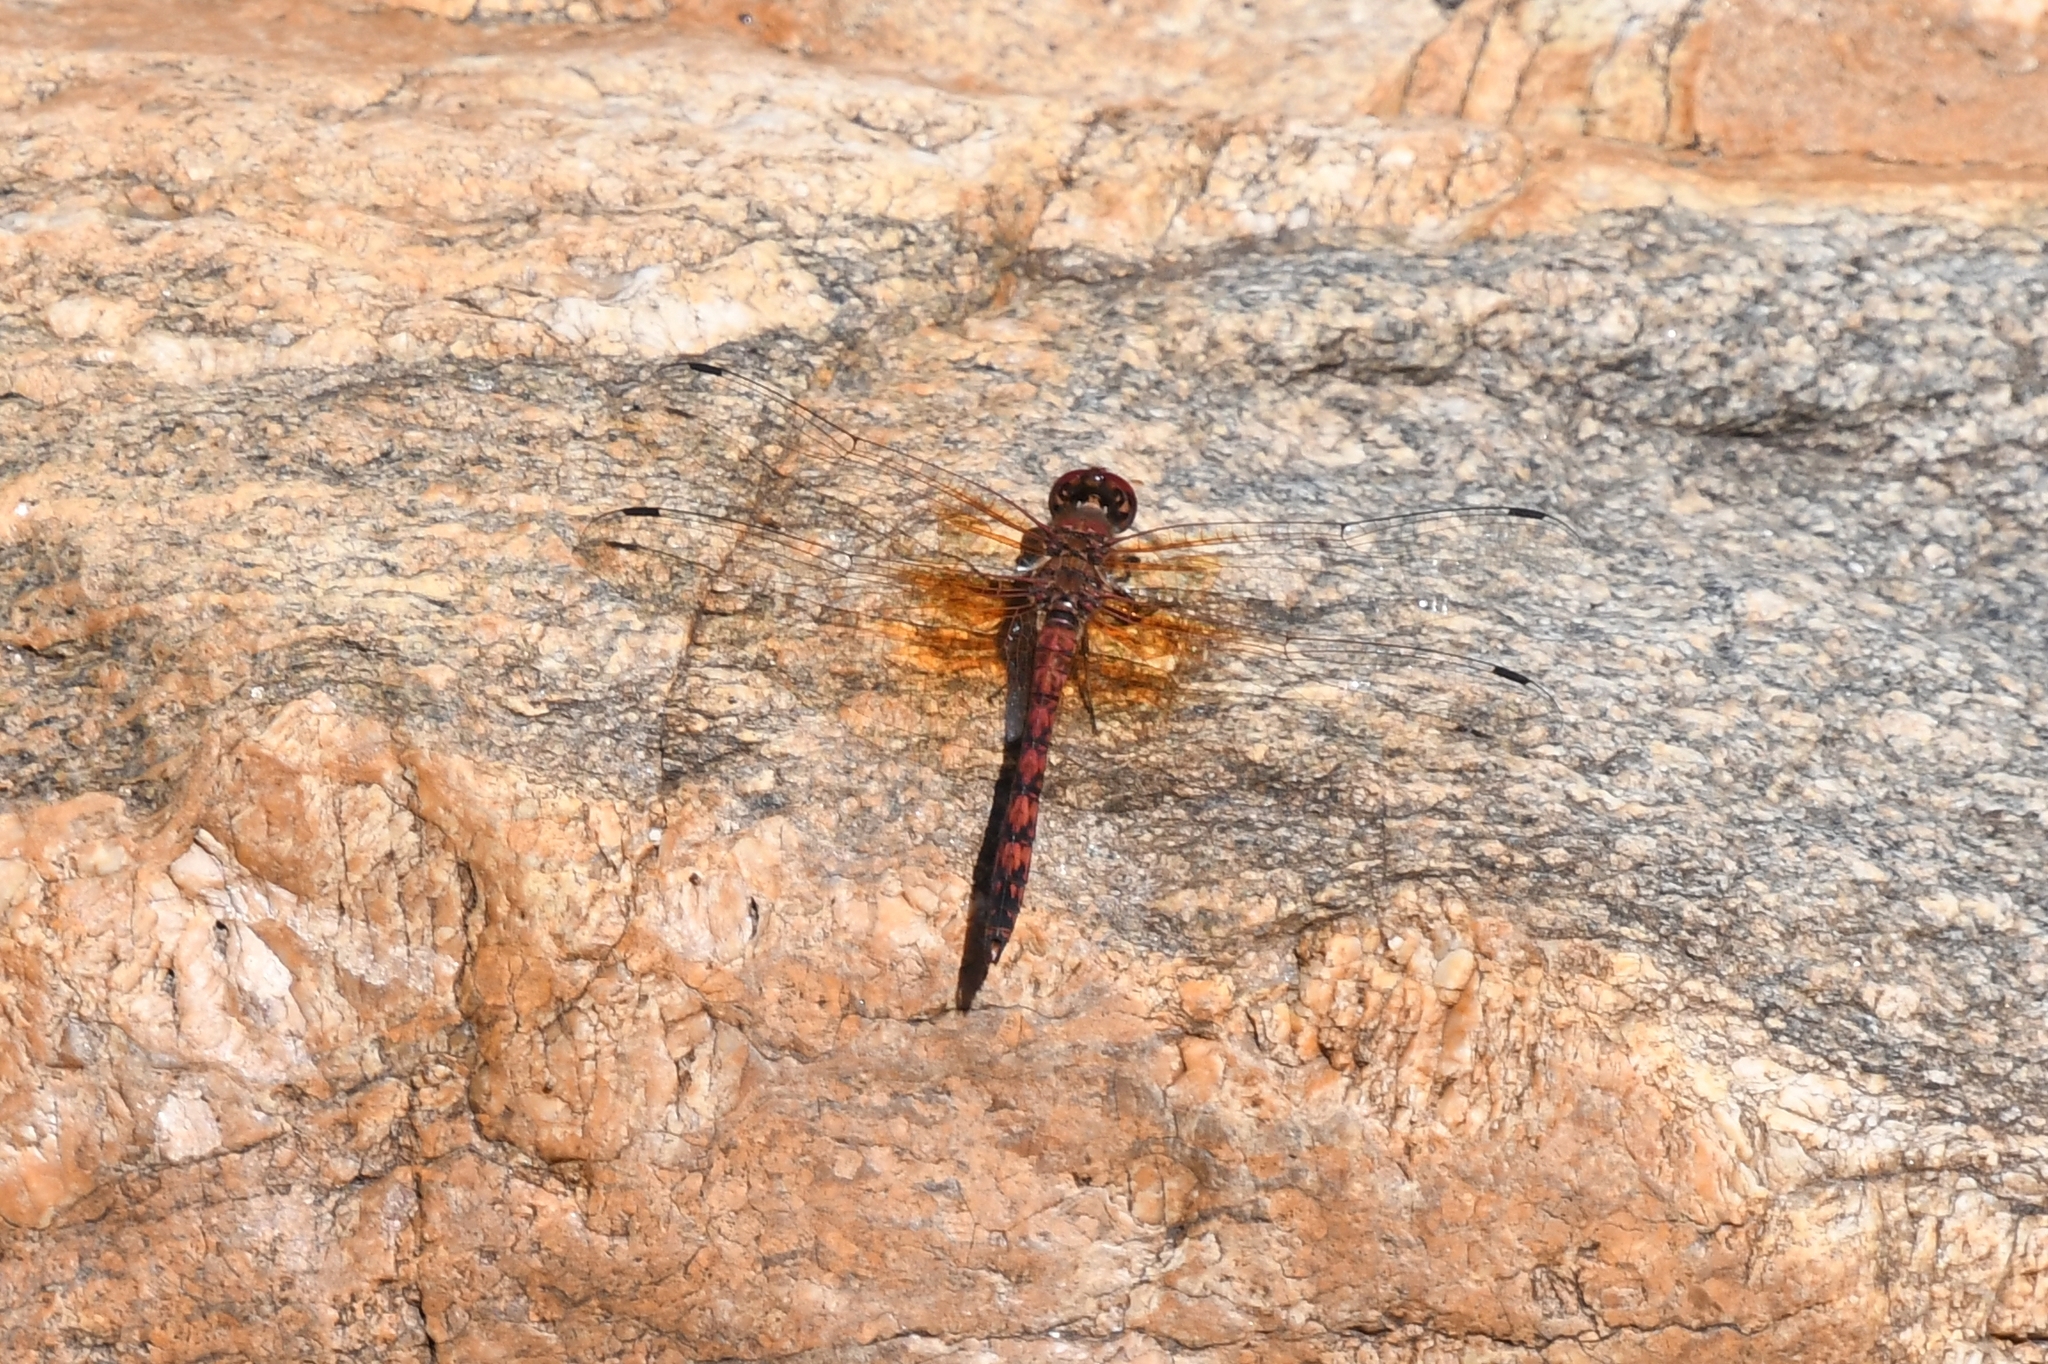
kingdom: Animalia
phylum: Arthropoda
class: Insecta
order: Odonata
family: Libellulidae
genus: Paltothemis
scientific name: Paltothemis lineatipes
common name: Red rock skimmer
